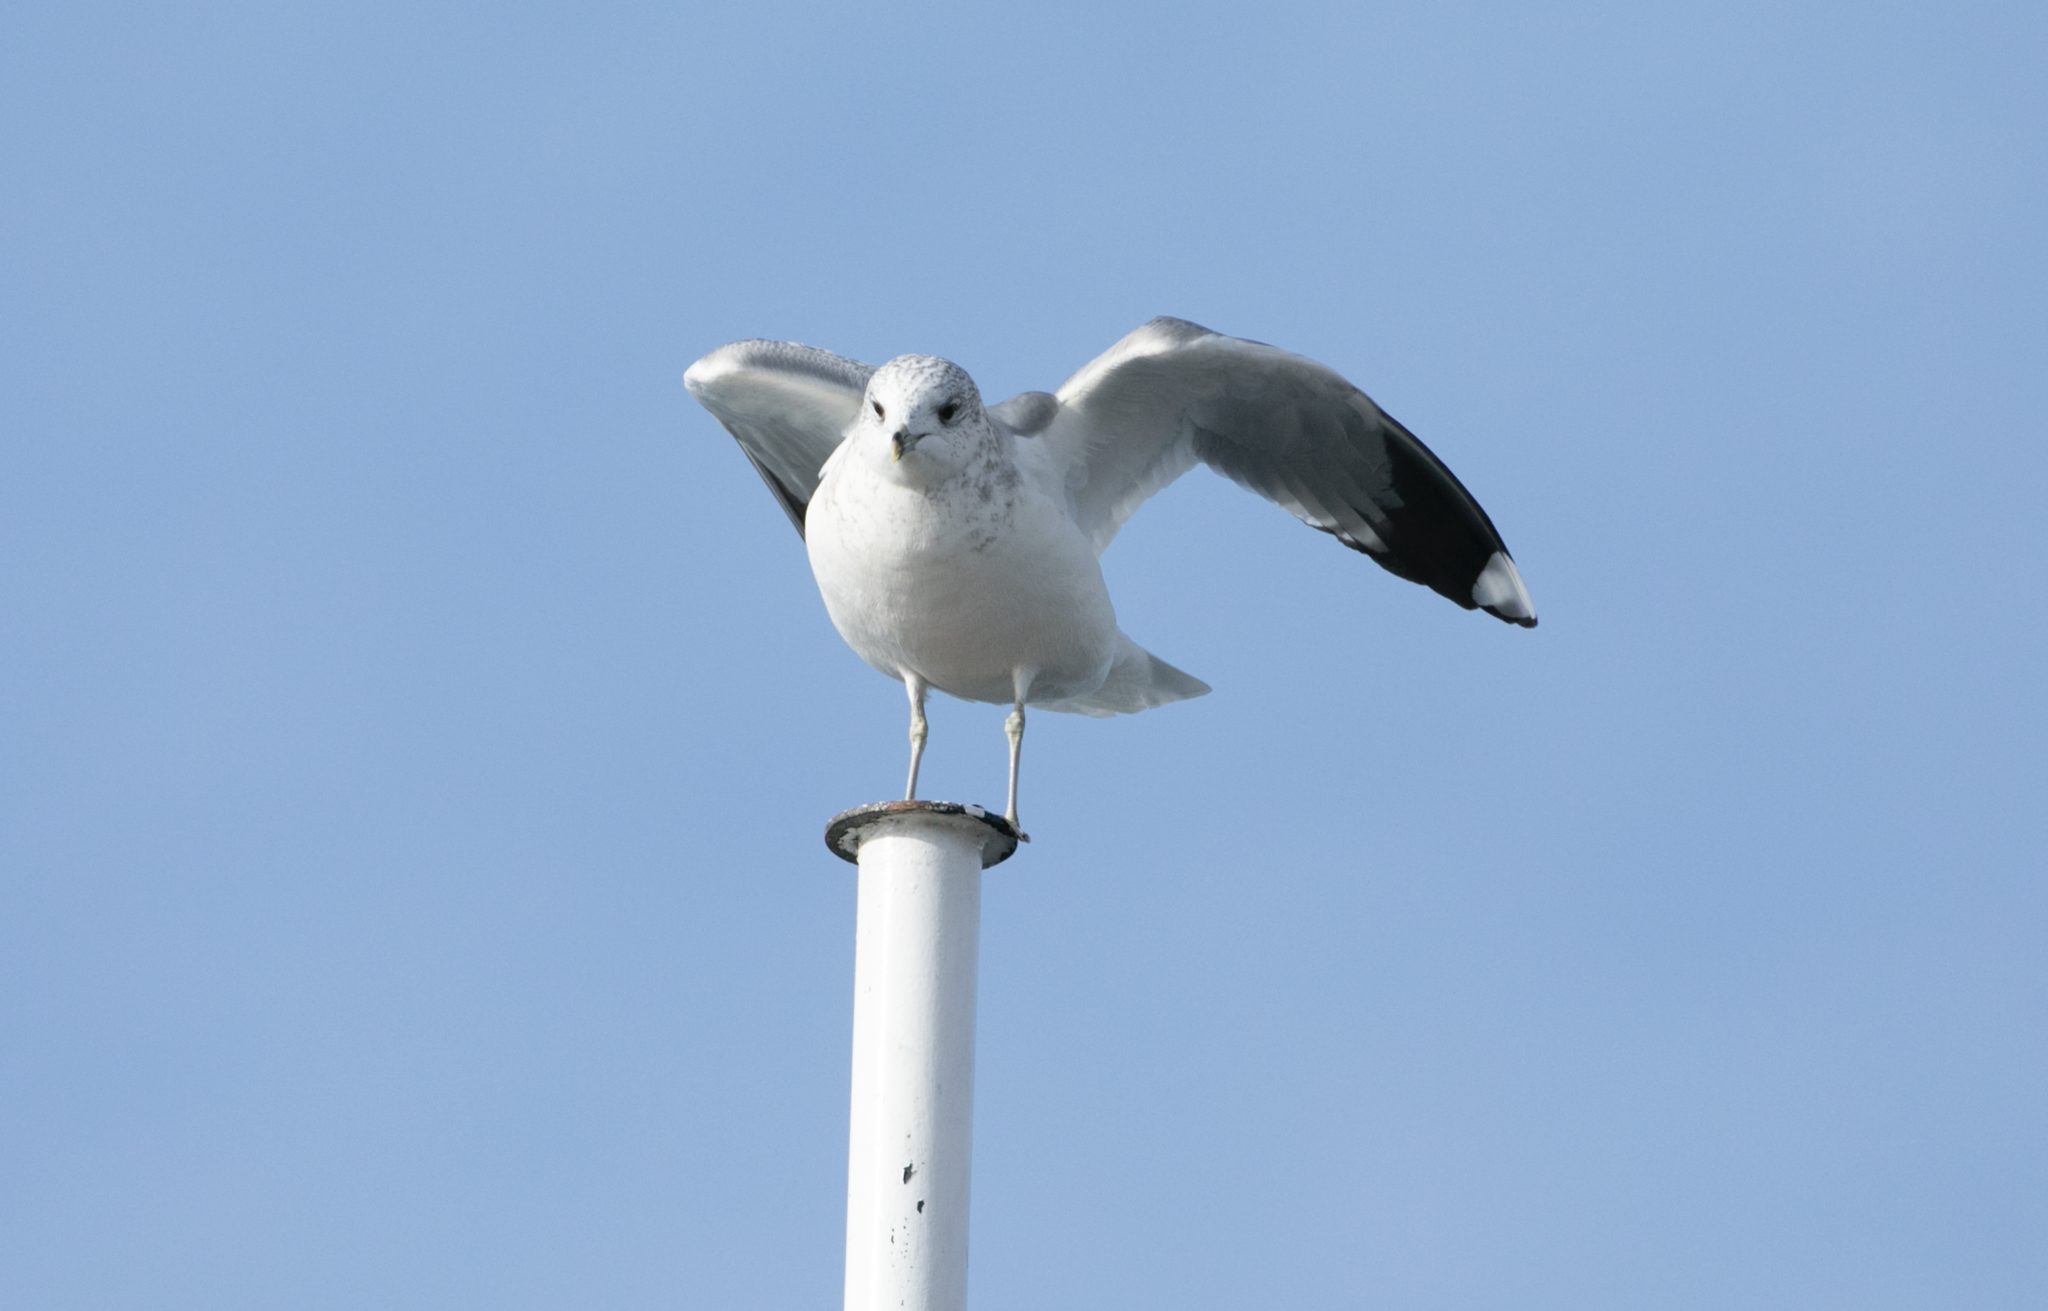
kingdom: Animalia
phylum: Chordata
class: Aves
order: Charadriiformes
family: Laridae
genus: Larus
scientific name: Larus canus
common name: Mew gull
